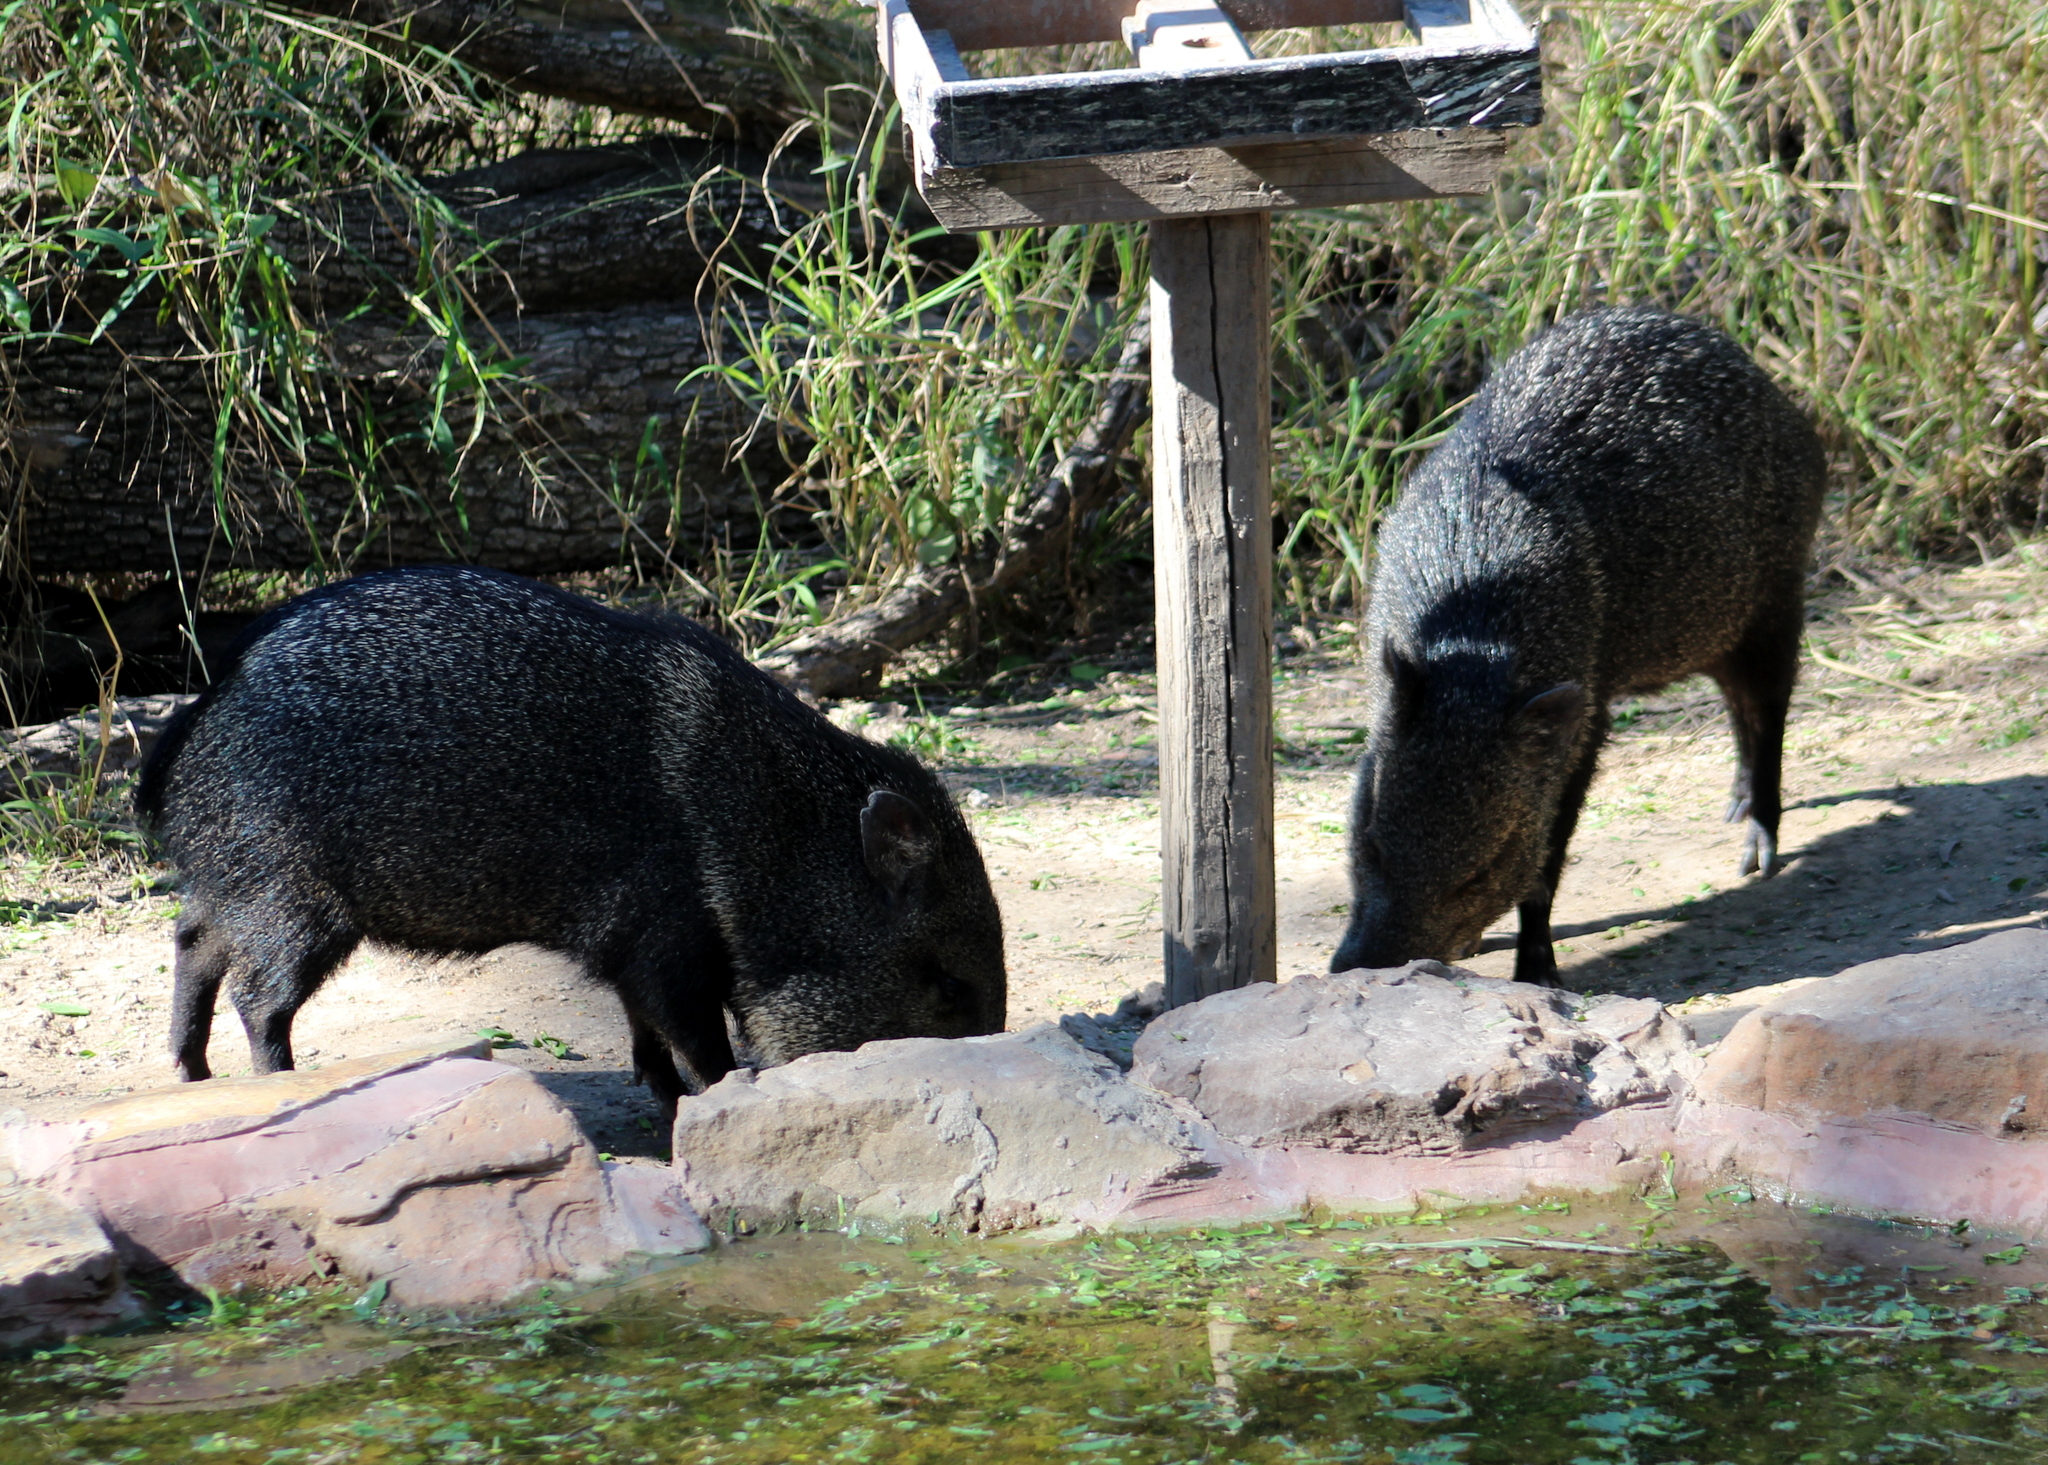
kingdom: Animalia
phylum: Chordata
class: Mammalia
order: Artiodactyla
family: Tayassuidae
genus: Pecari
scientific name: Pecari tajacu
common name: Collared peccary
